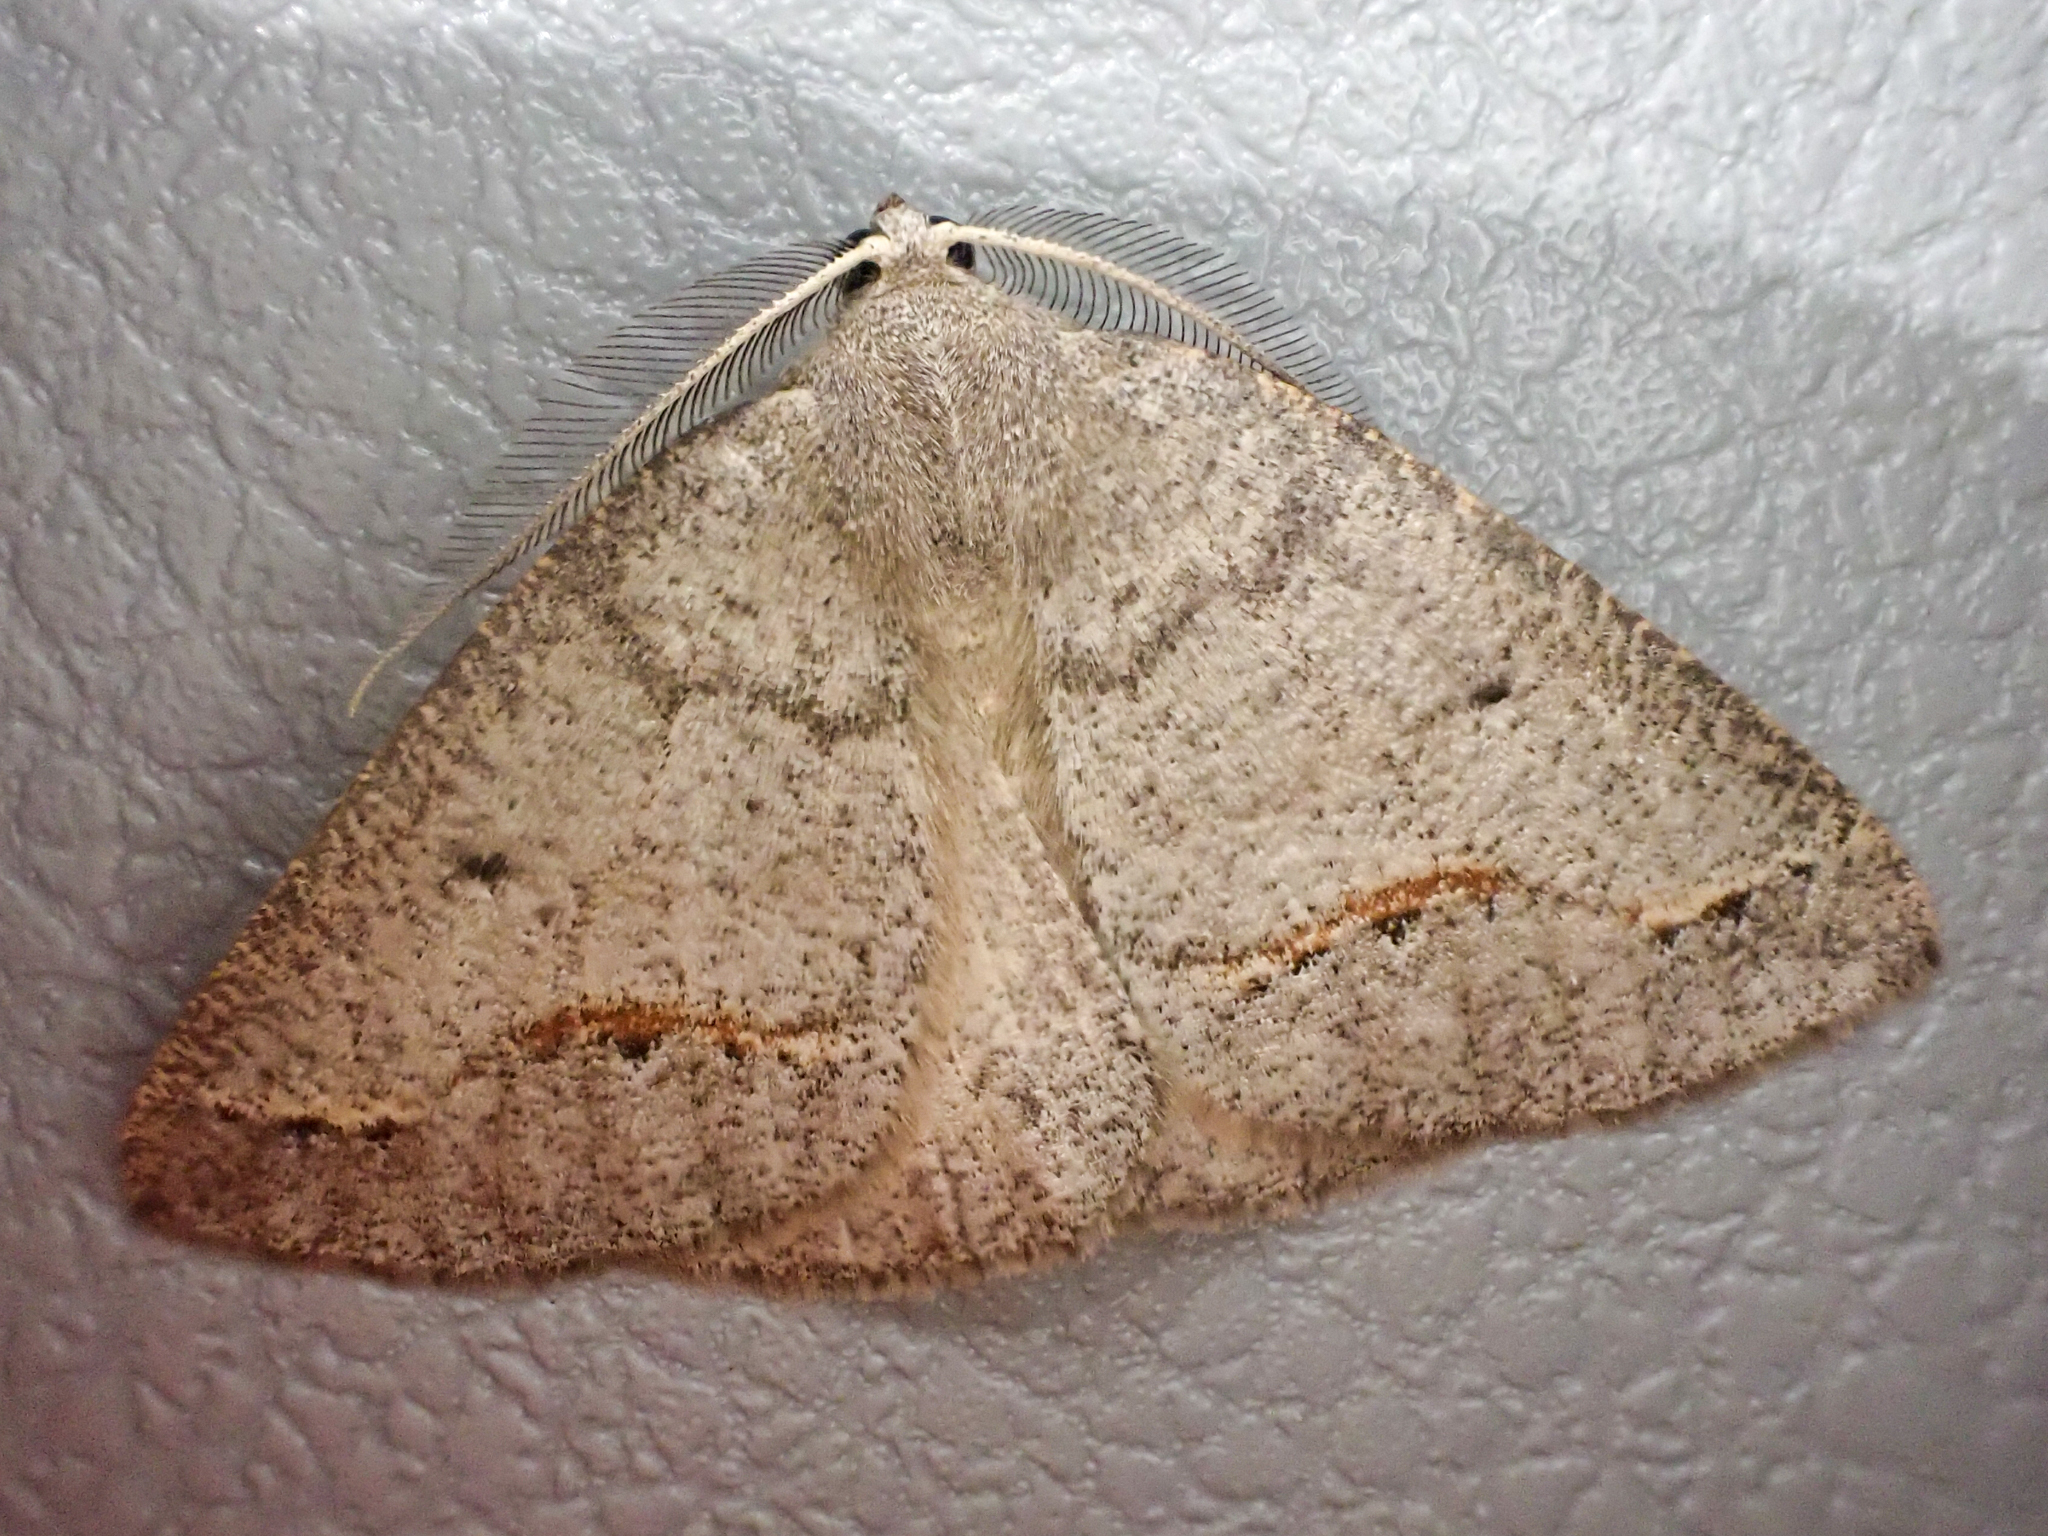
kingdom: Animalia
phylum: Arthropoda
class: Insecta
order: Lepidoptera
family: Geometridae
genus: Drepanulatrix
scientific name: Drepanulatrix unicalcararia
